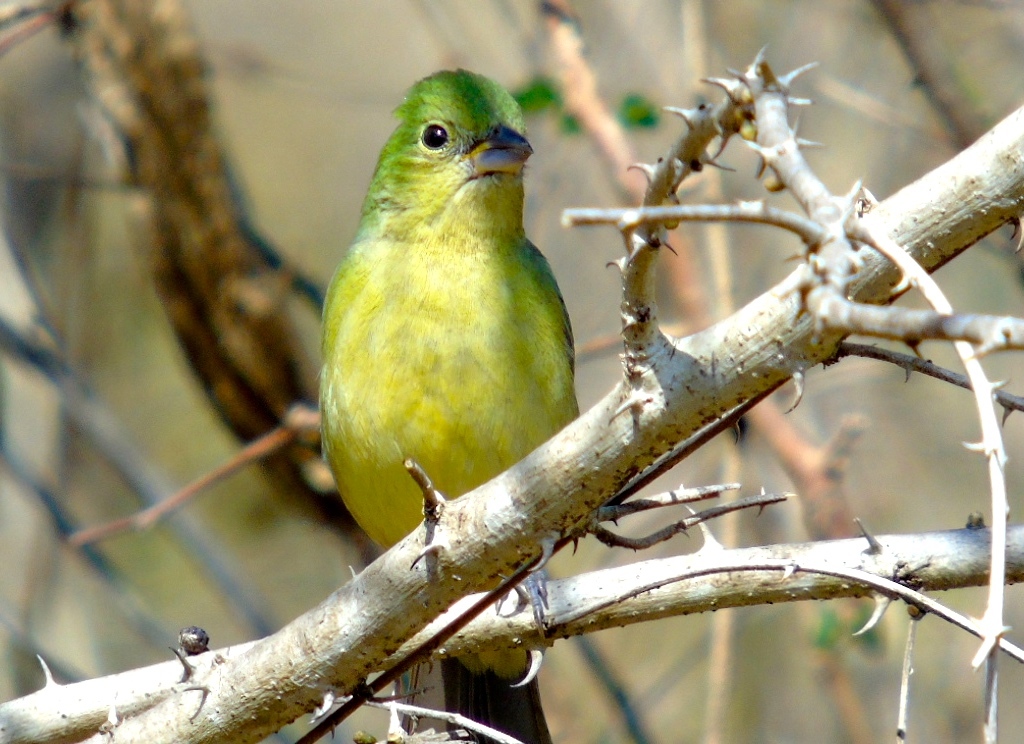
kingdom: Animalia
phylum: Chordata
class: Aves
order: Passeriformes
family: Cardinalidae
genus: Passerina
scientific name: Passerina ciris
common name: Painted bunting
